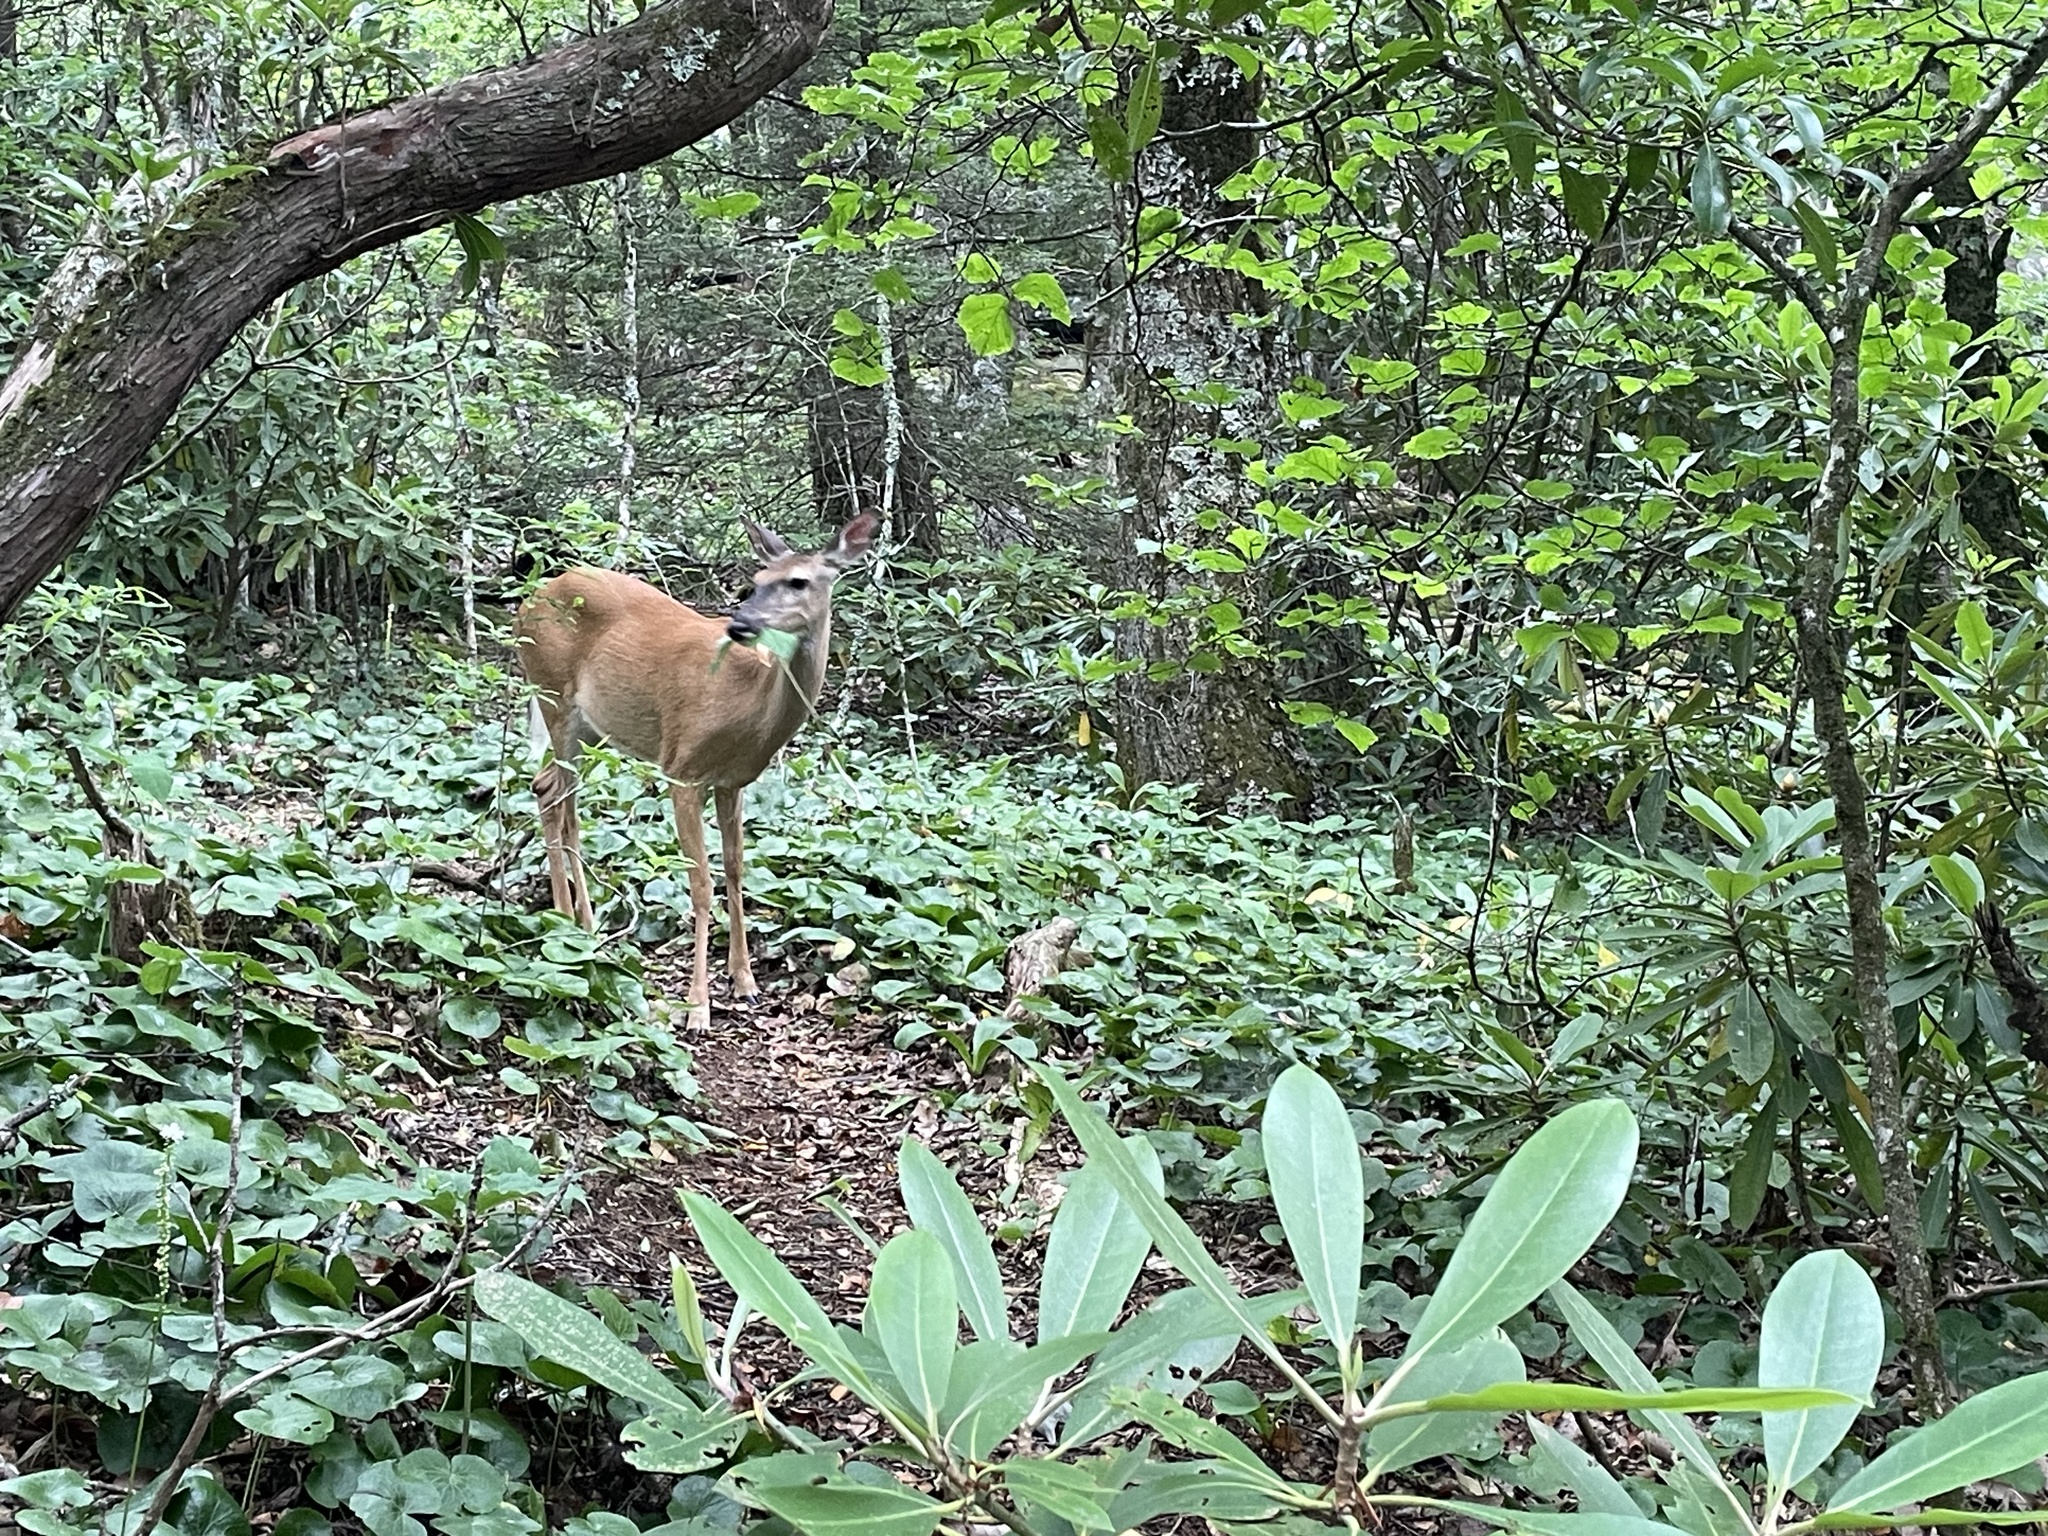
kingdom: Animalia
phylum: Chordata
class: Mammalia
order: Artiodactyla
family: Cervidae
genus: Odocoileus
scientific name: Odocoileus virginianus
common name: White-tailed deer
